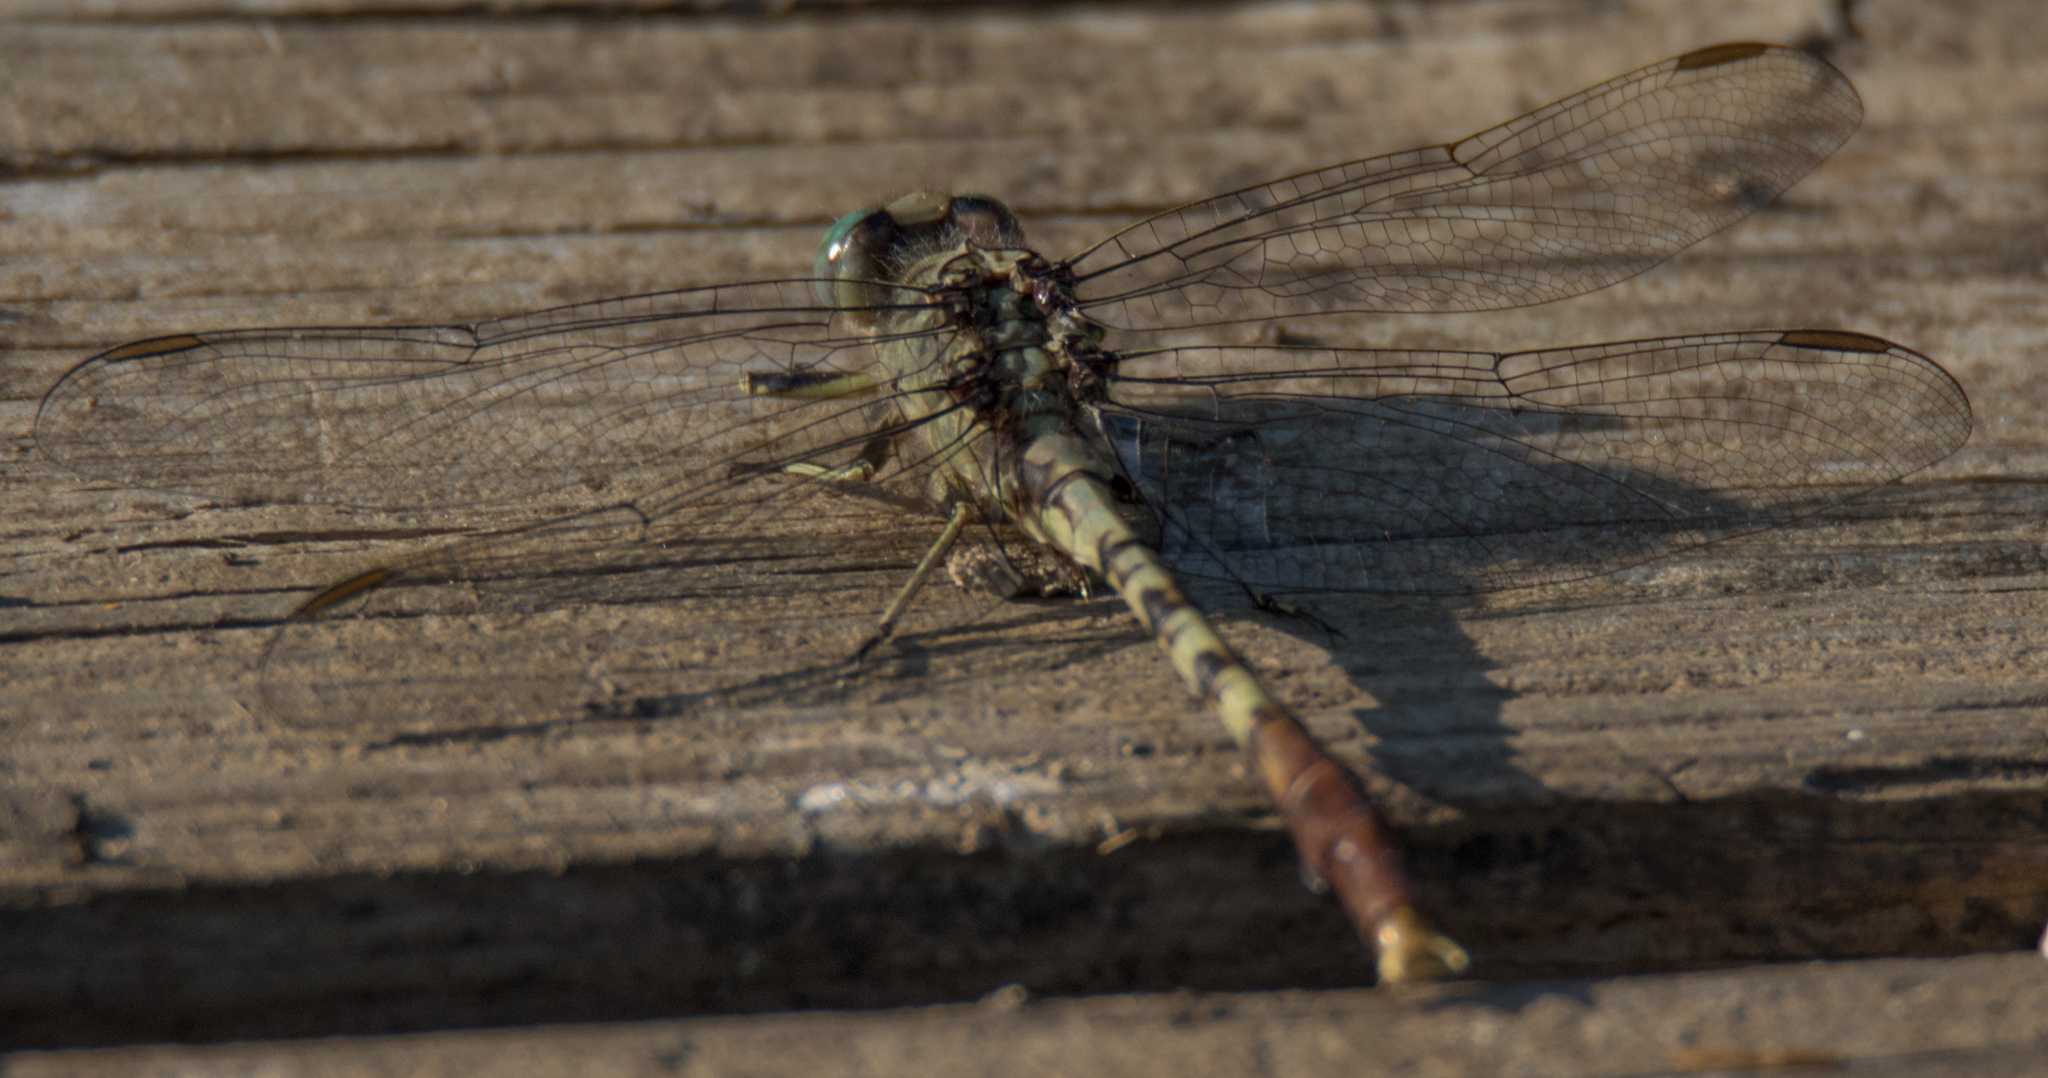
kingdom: Animalia
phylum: Arthropoda
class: Insecta
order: Odonata
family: Gomphidae
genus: Arigomphus
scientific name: Arigomphus submedianus
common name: Jade clubtail
